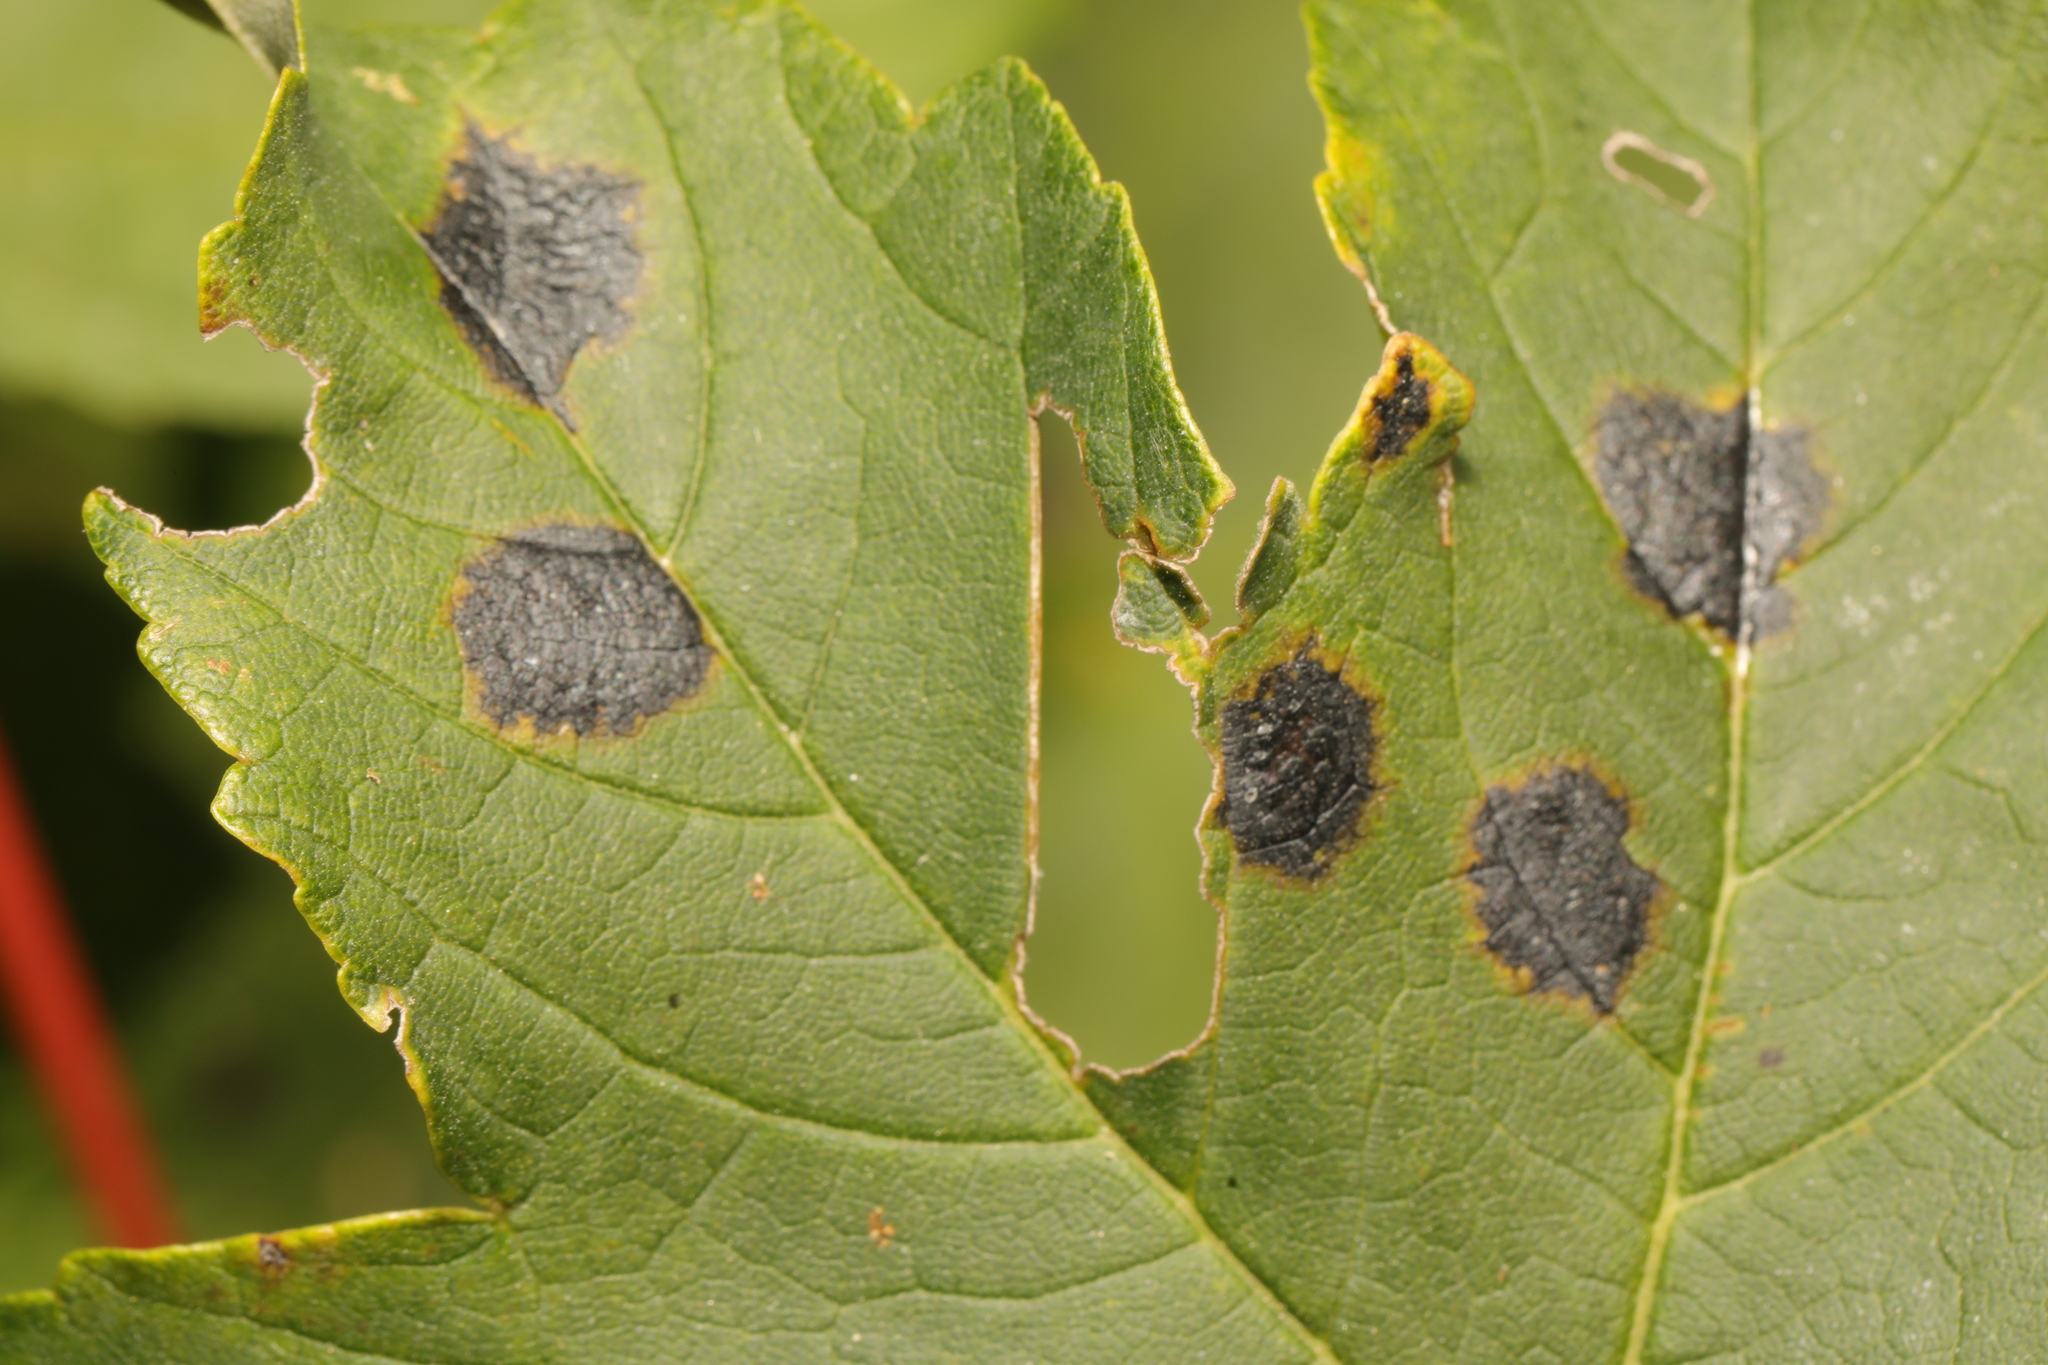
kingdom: Fungi
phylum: Ascomycota
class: Leotiomycetes
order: Rhytismatales
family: Rhytismataceae
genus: Rhytisma
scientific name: Rhytisma acerinum
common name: European tar spot
